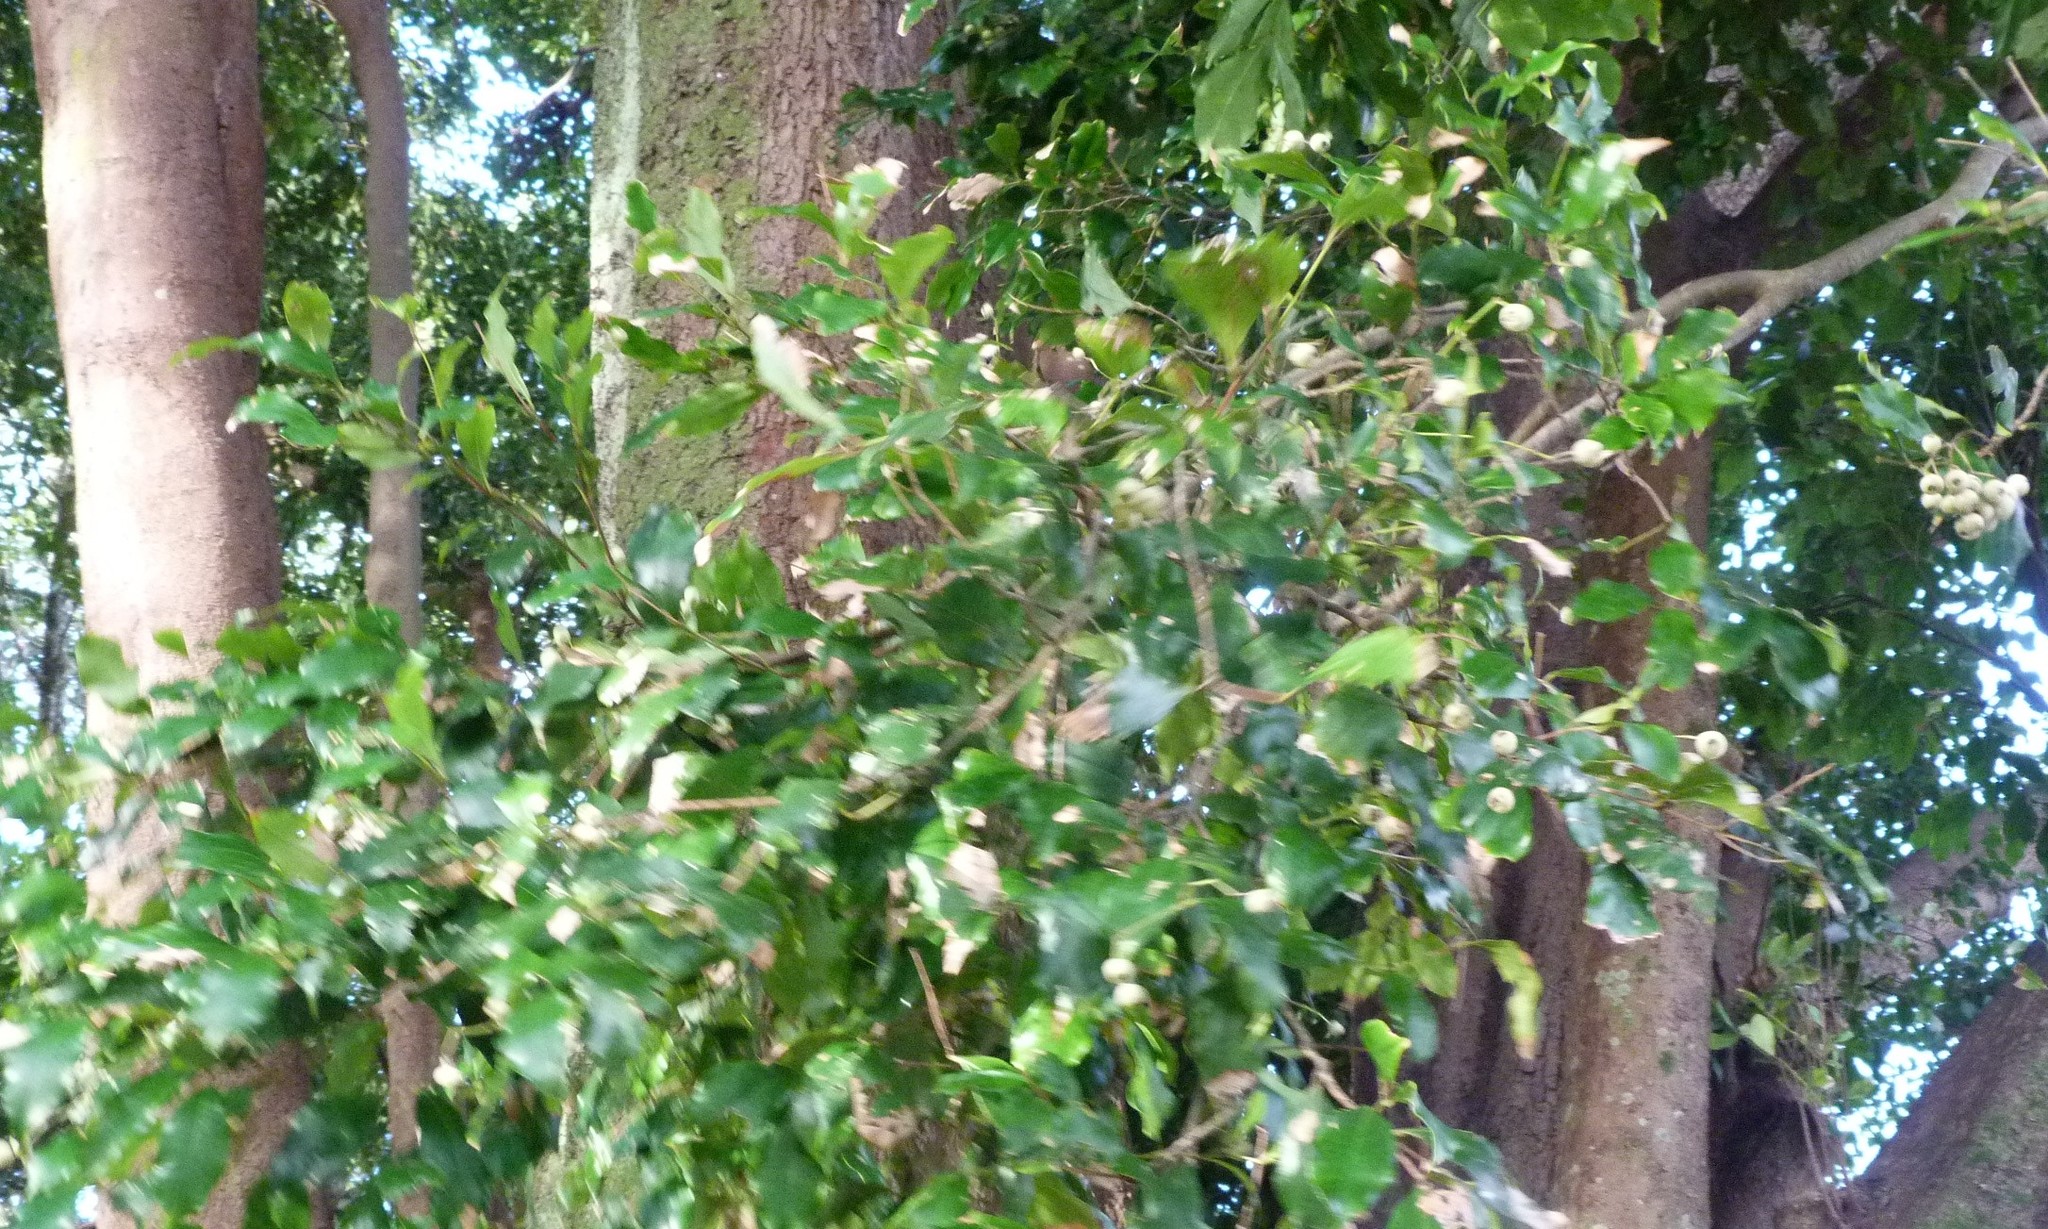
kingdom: Plantae
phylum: Tracheophyta
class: Magnoliopsida
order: Myrtales
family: Myrtaceae
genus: Syzygium
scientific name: Syzygium smithii
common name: Lilly-pilly
